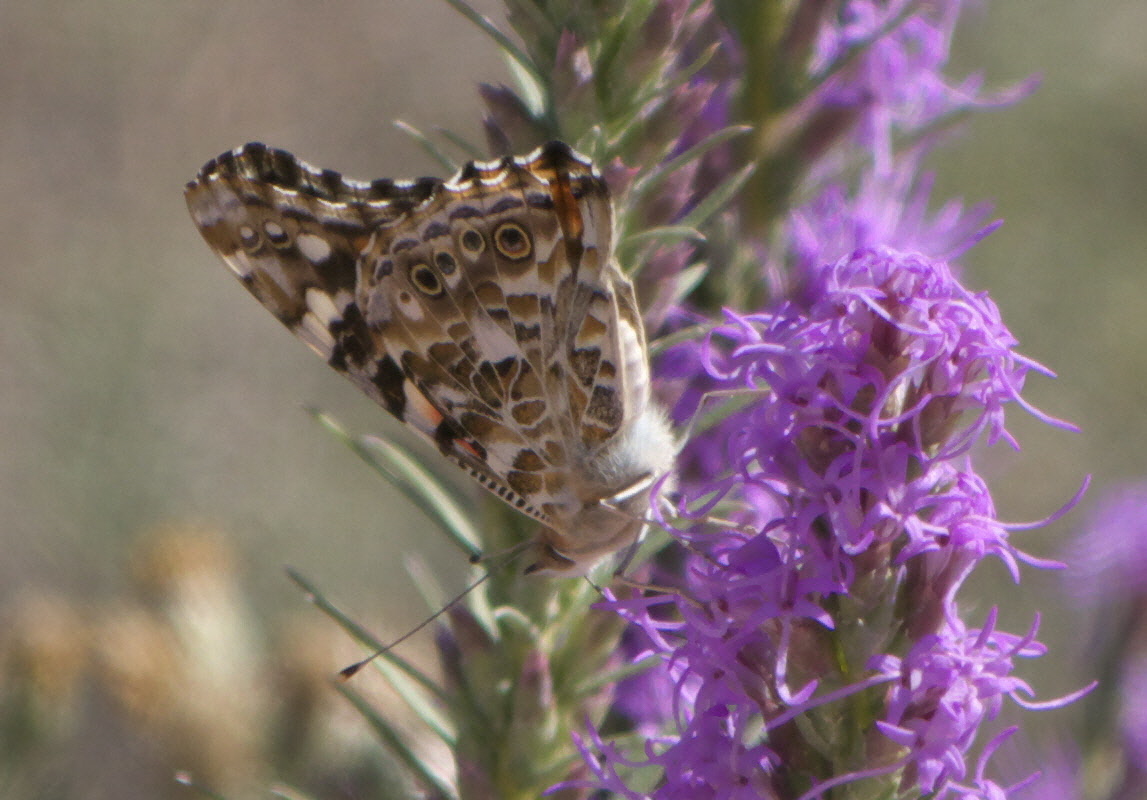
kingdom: Animalia
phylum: Arthropoda
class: Insecta
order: Lepidoptera
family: Nymphalidae
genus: Vanessa
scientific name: Vanessa cardui
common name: Painted lady
